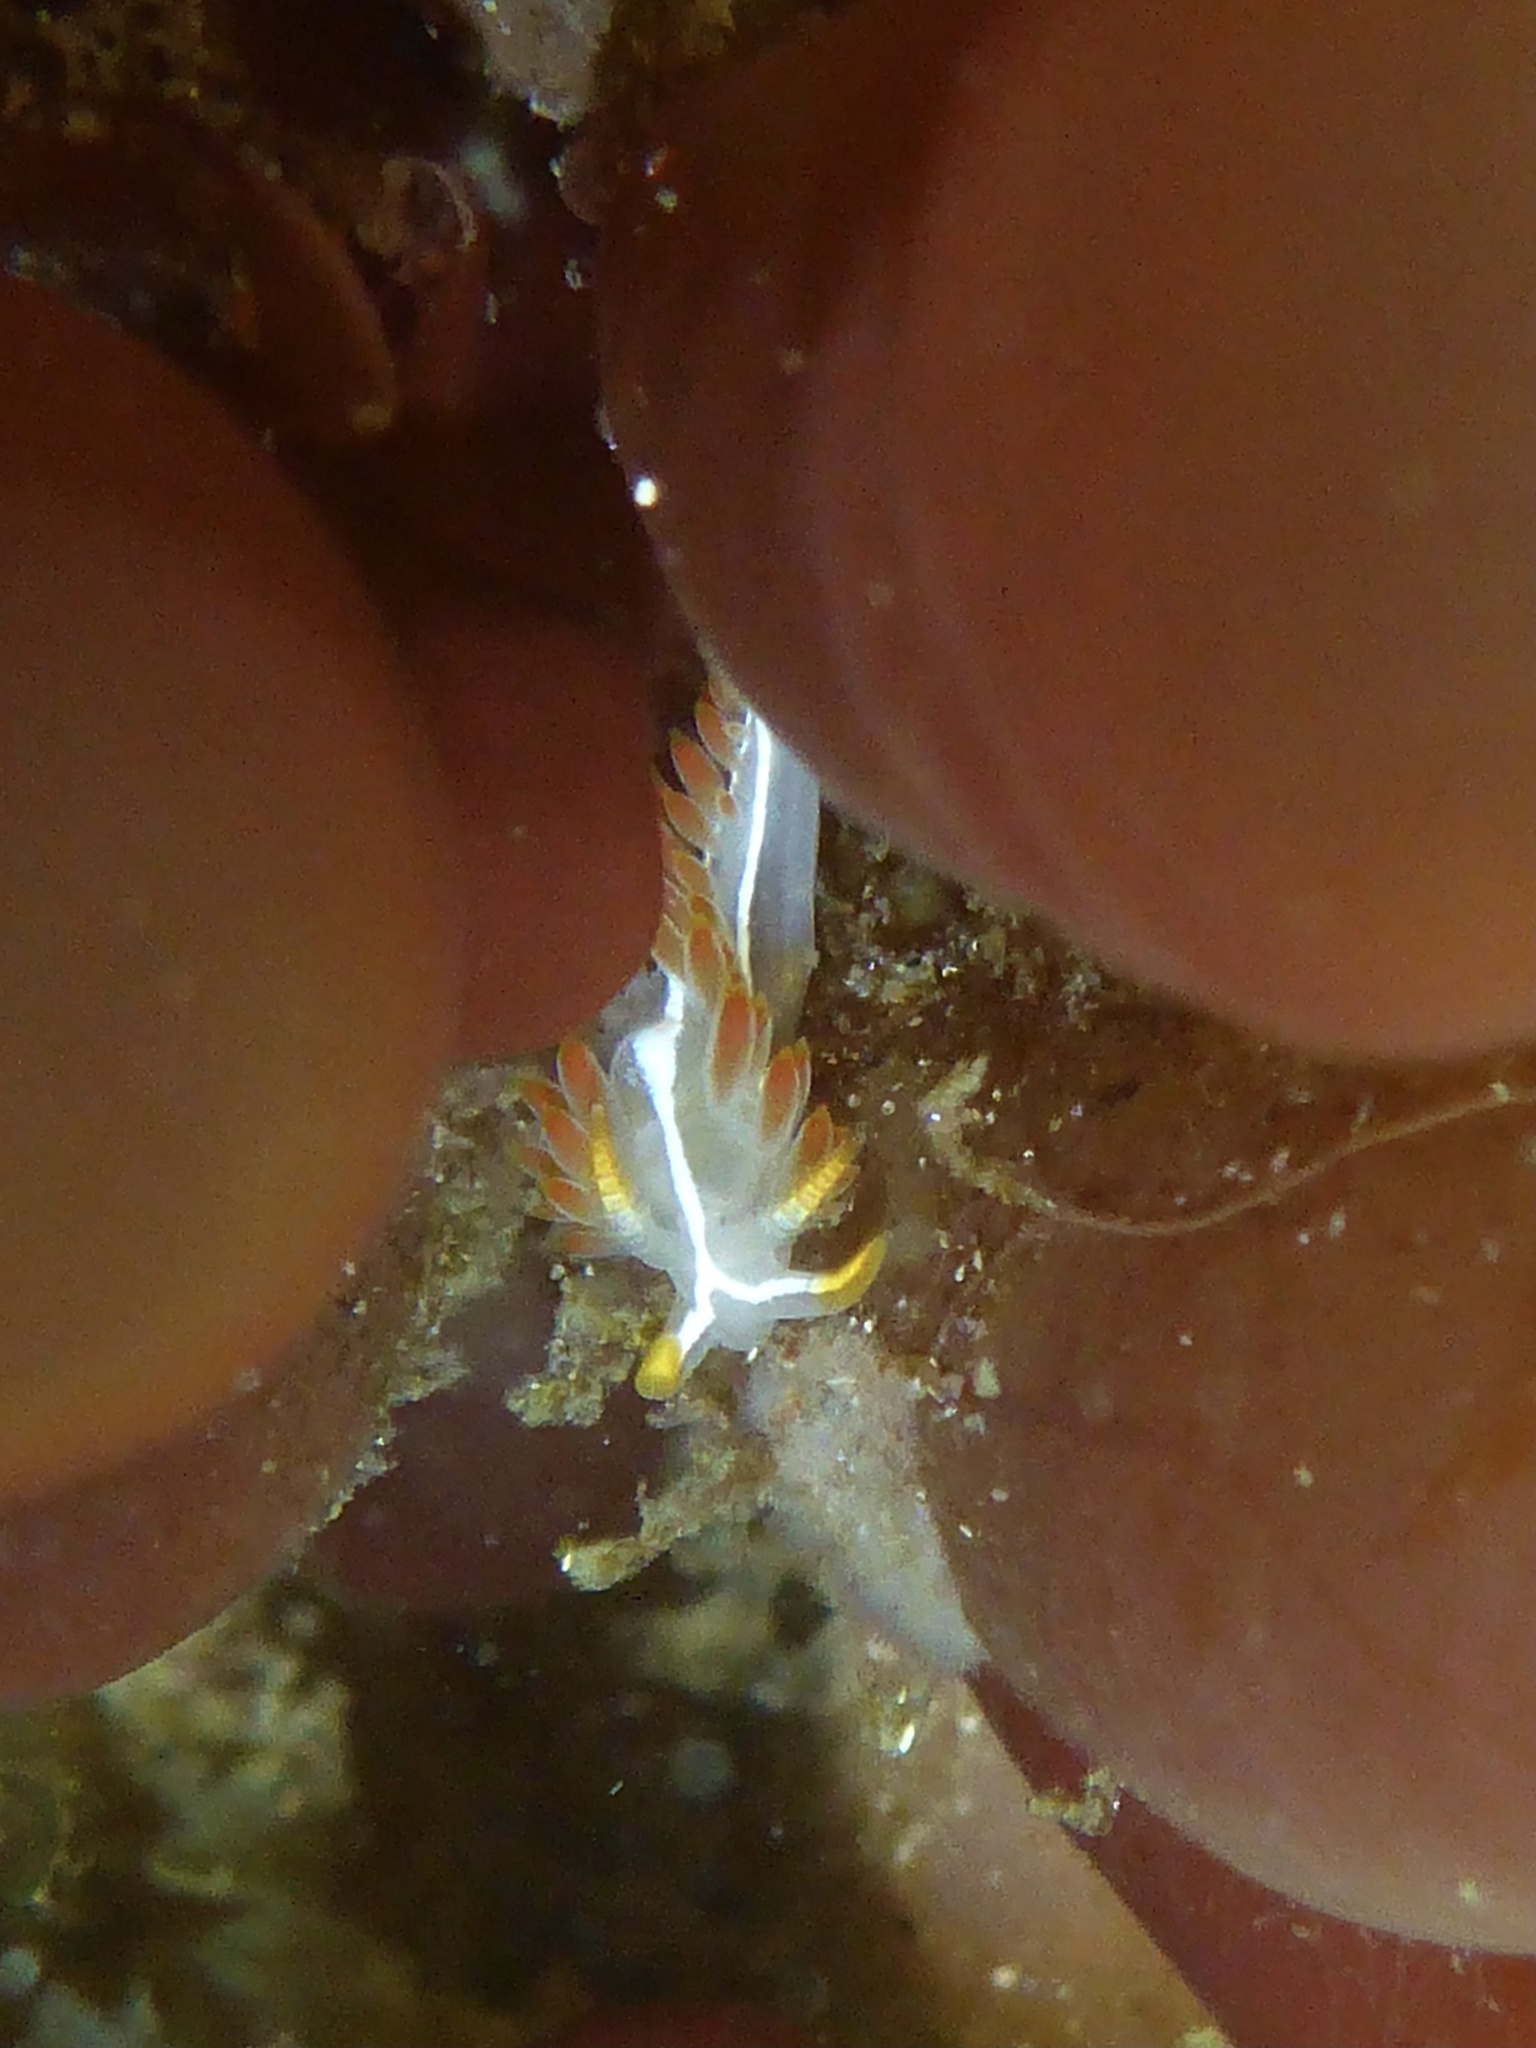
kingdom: Animalia
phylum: Mollusca
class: Gastropoda
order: Nudibranchia
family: Coryphellidae
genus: Coryphella
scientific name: Coryphella trilineata
